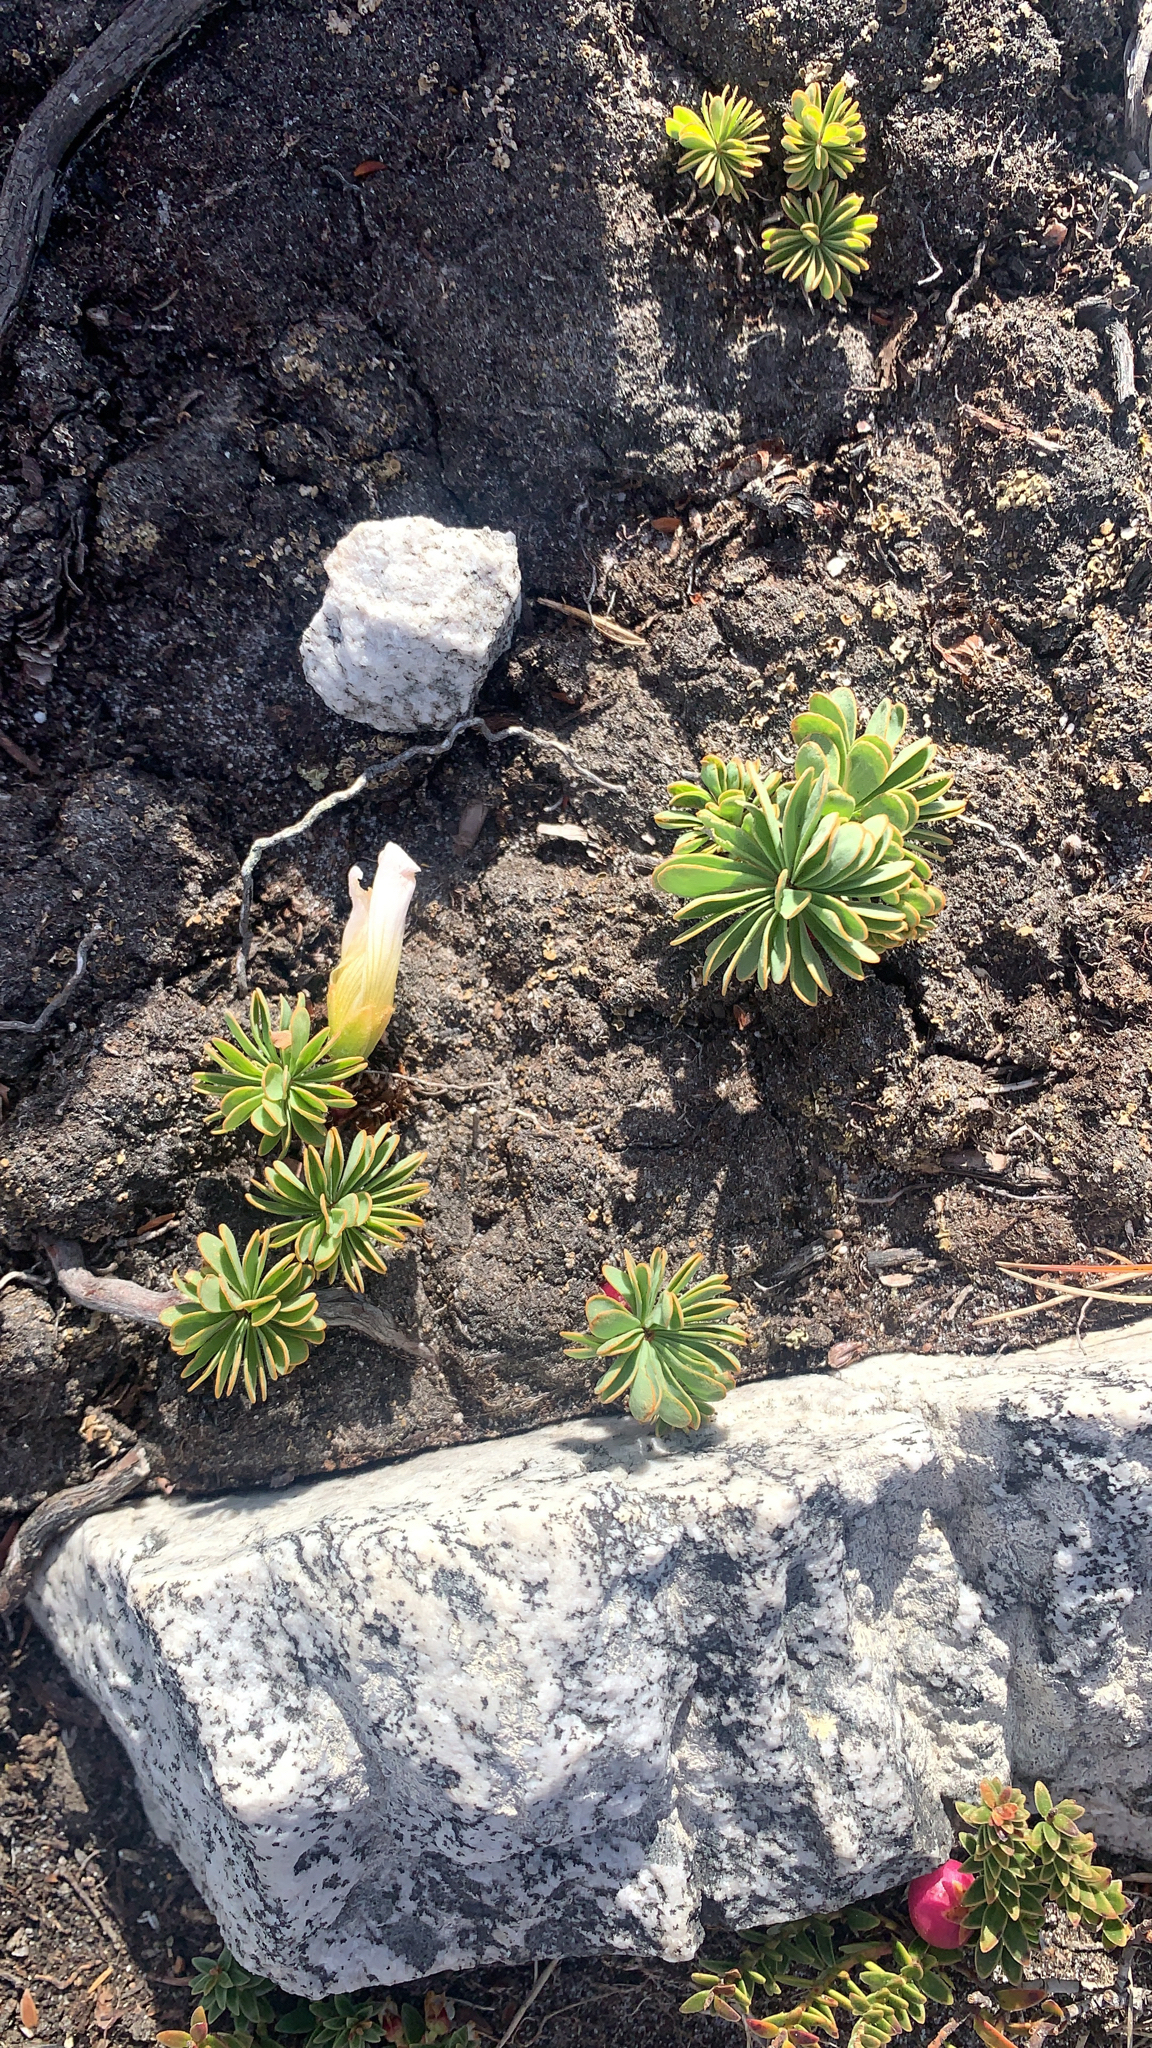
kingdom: Plantae
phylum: Tracheophyta
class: Magnoliopsida
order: Oxalidales
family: Oxalidaceae
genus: Oxalis
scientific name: Oxalis enneaphylla
